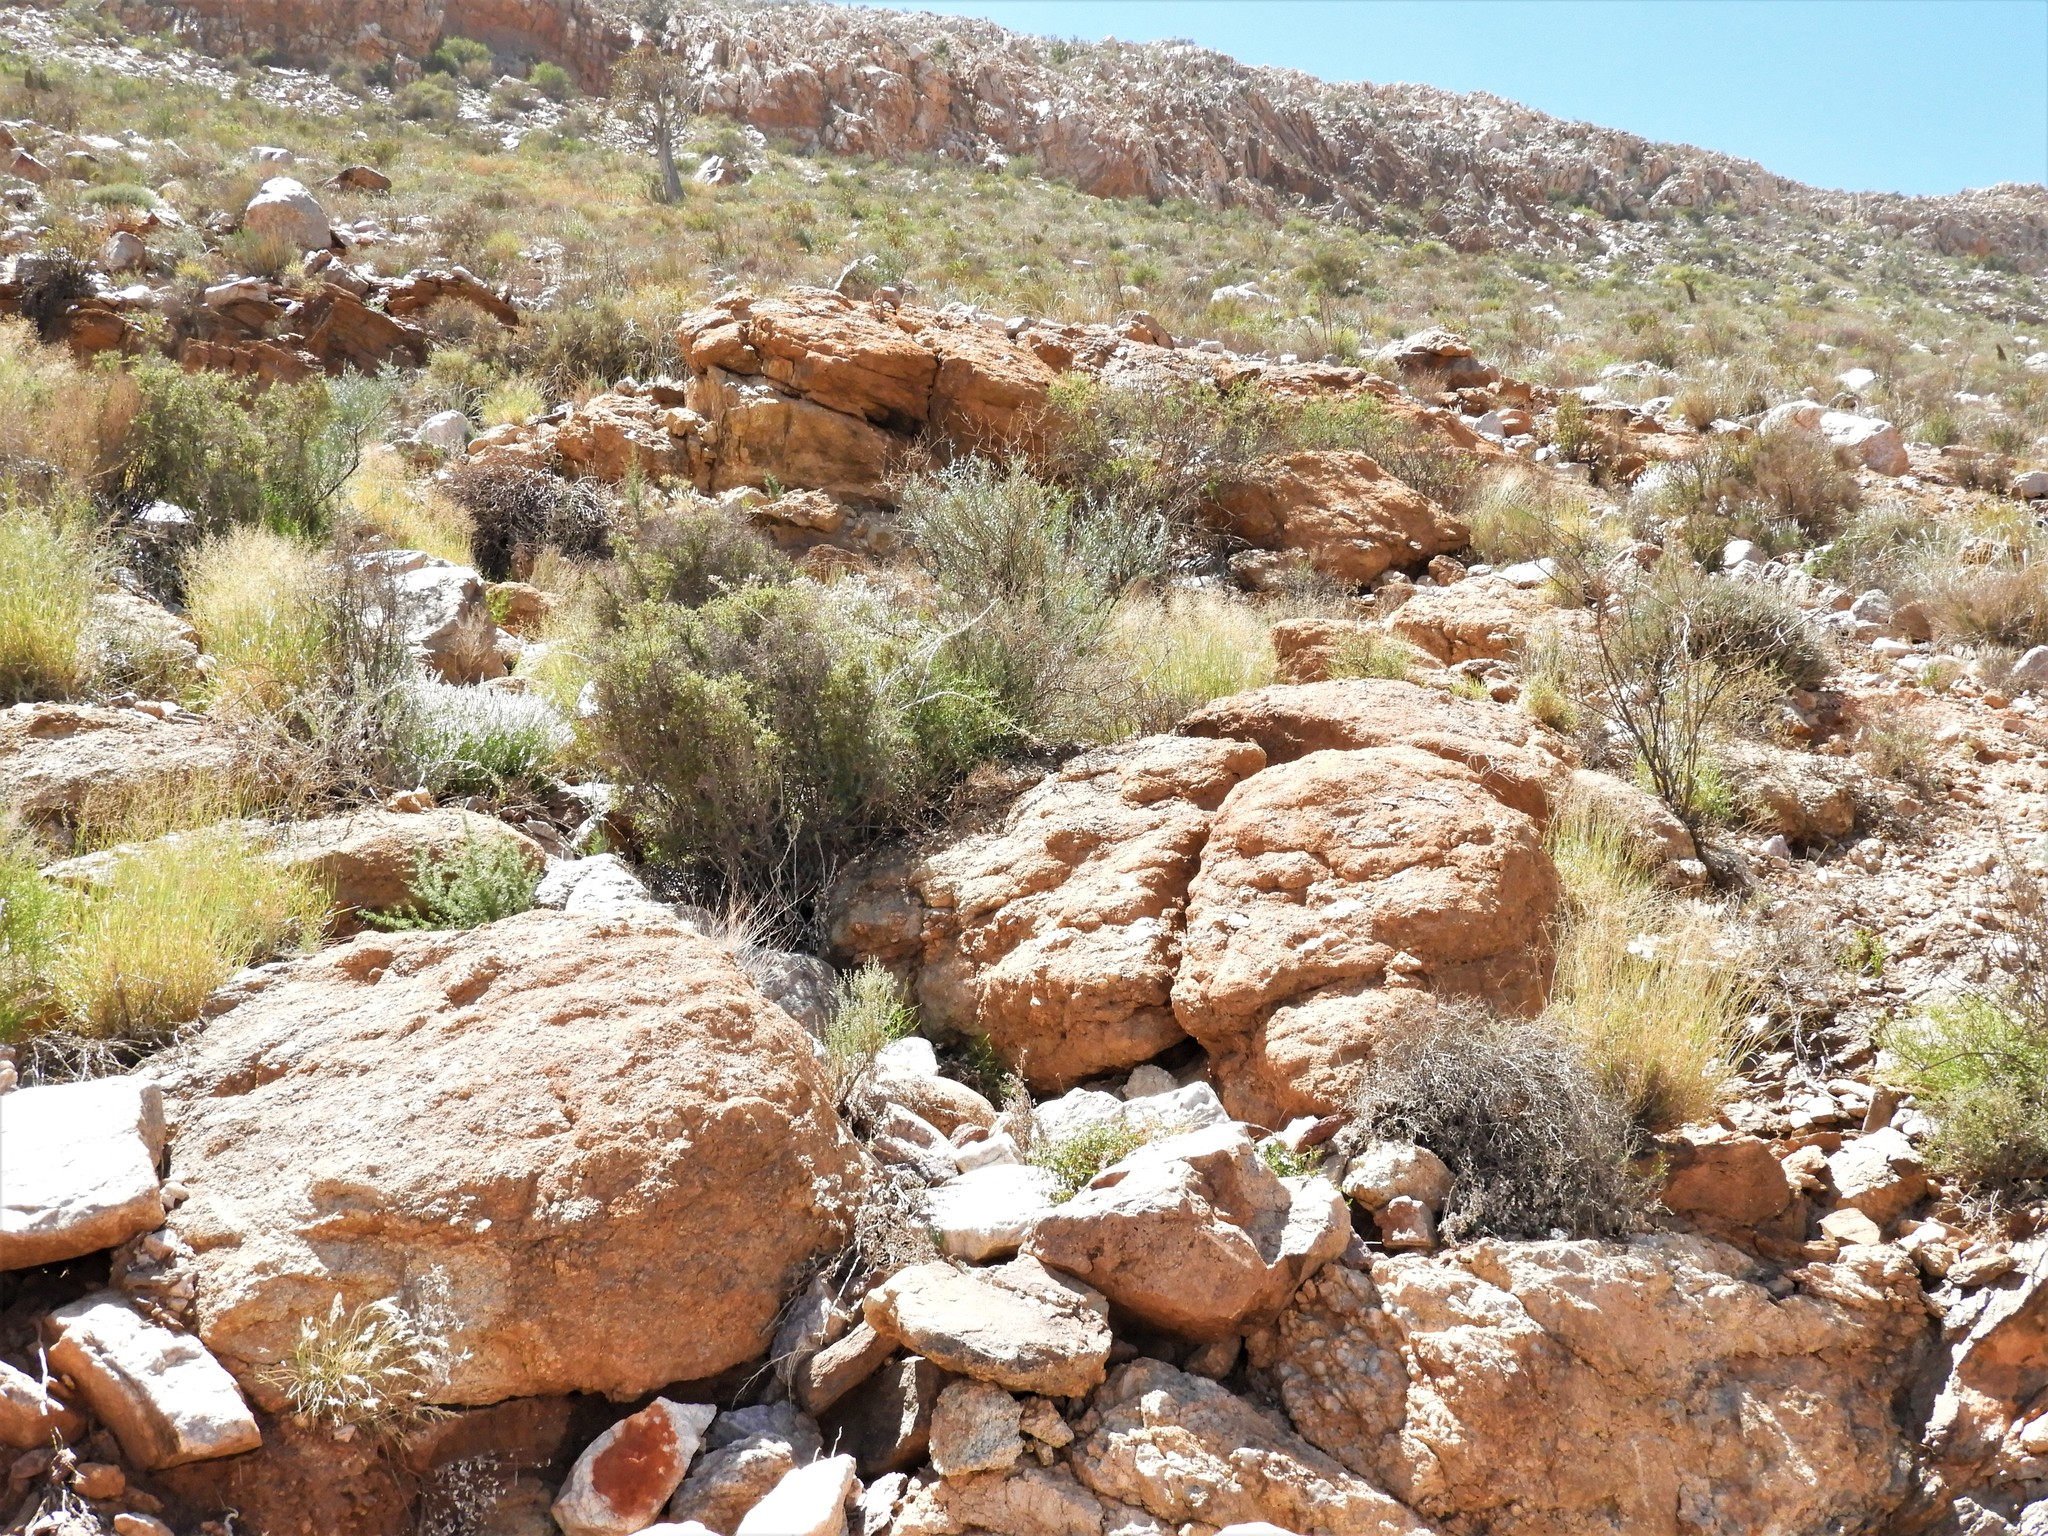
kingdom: Animalia
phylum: Chordata
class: Squamata
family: Agamidae
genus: Agama
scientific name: Agama atra
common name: Southern african rock agama
